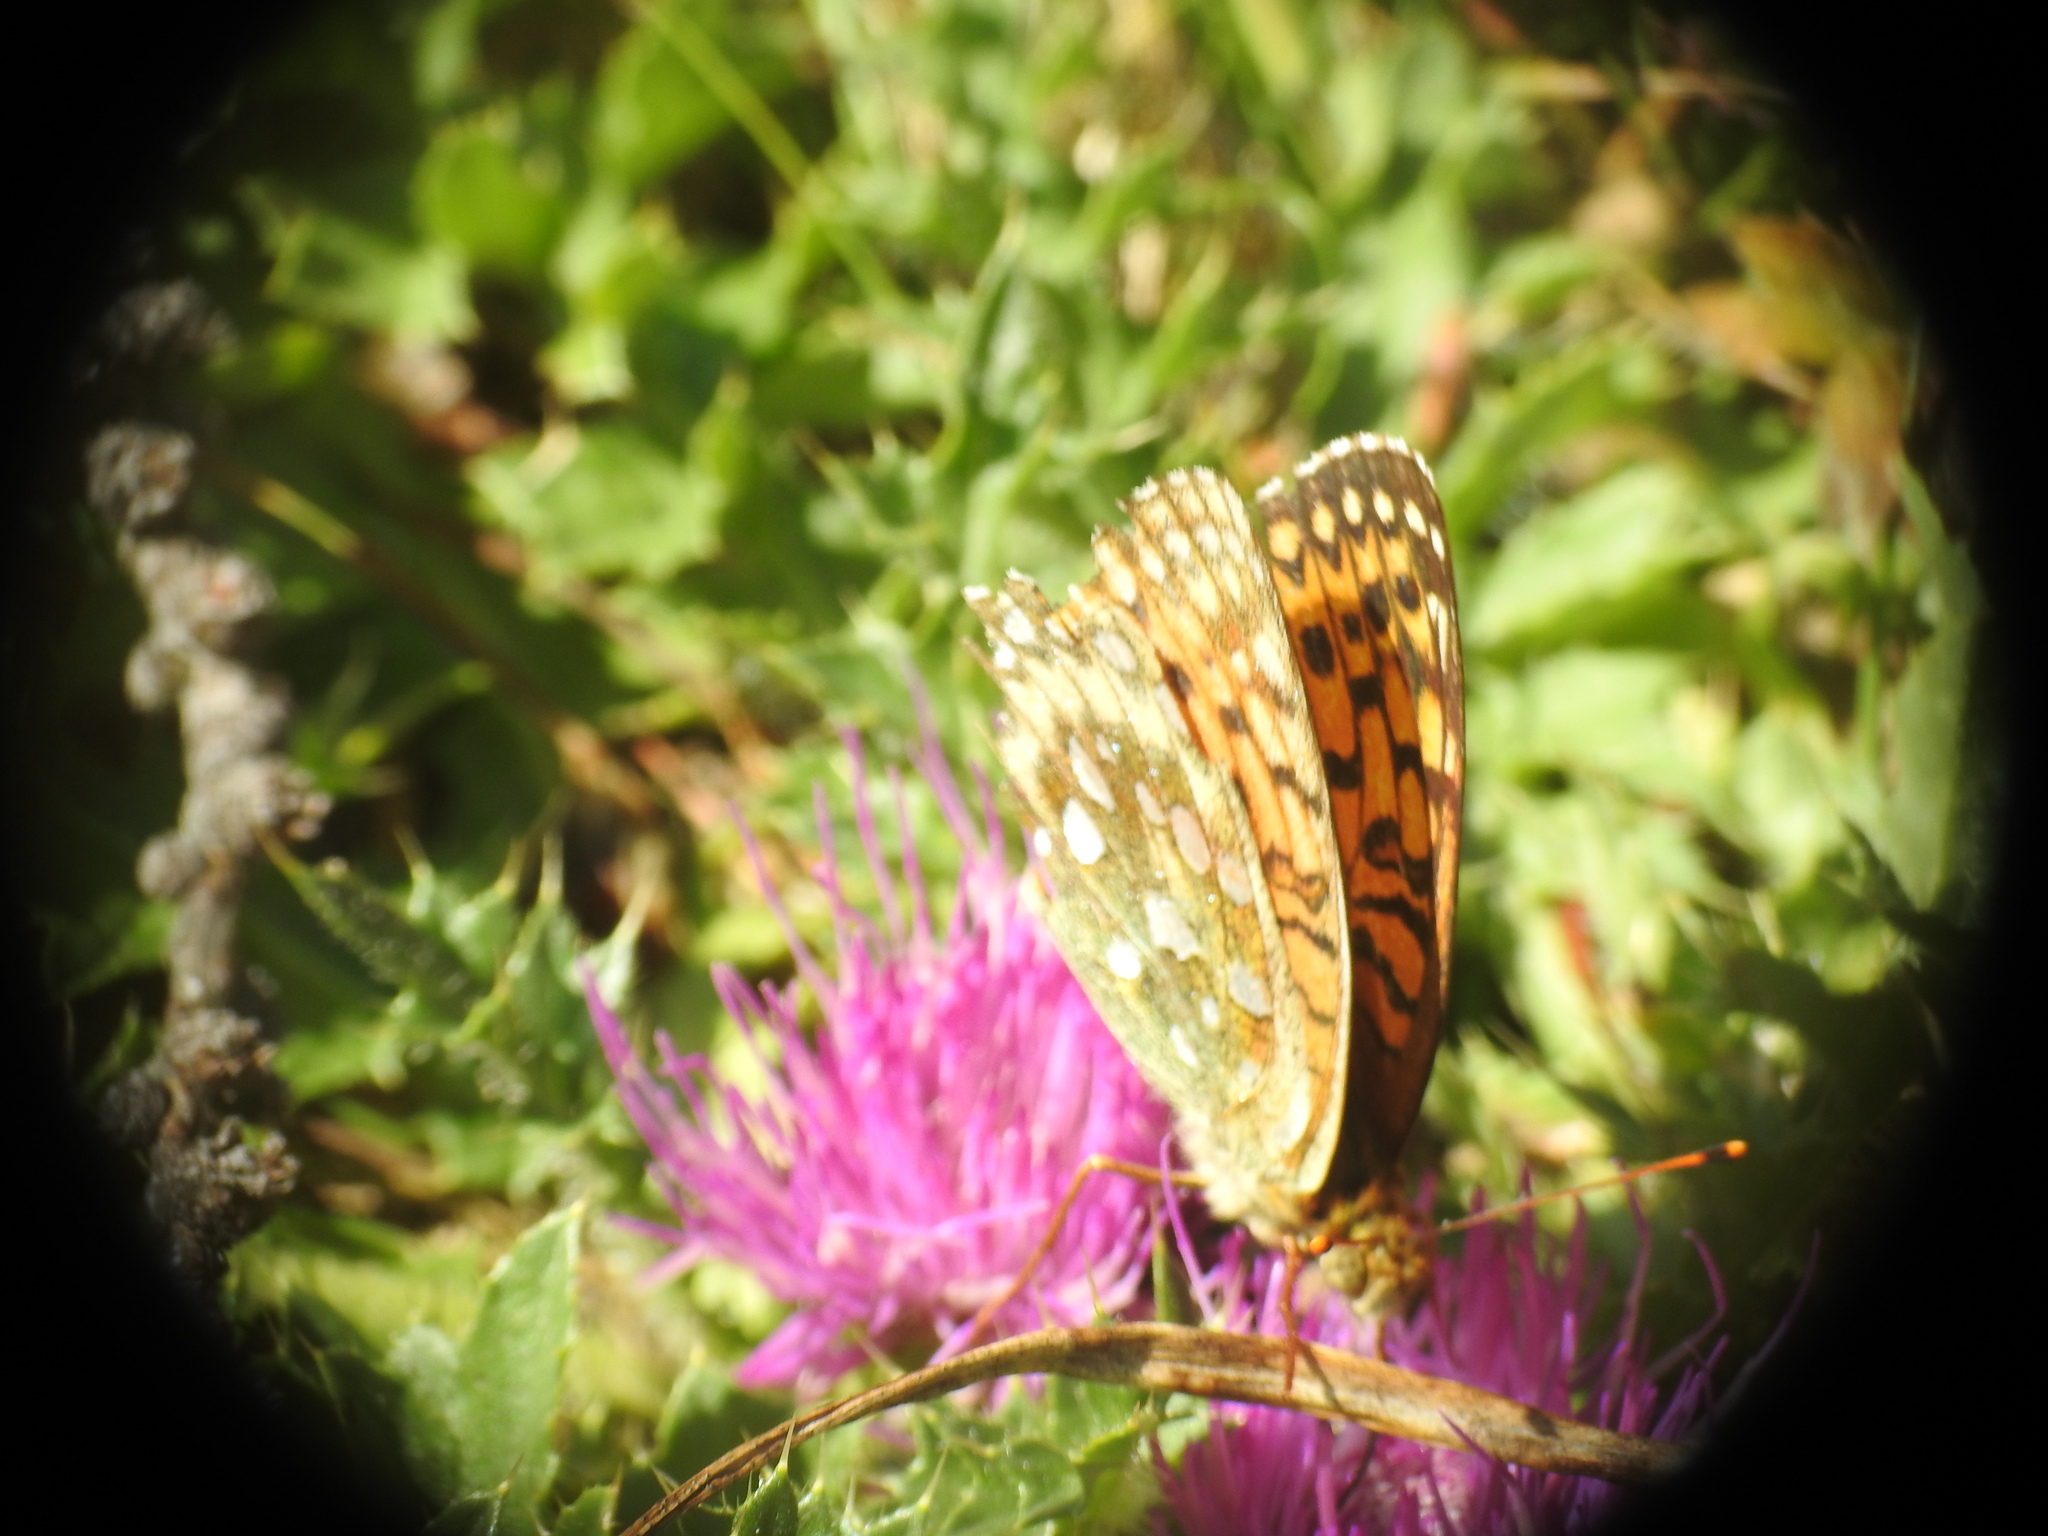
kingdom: Animalia
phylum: Arthropoda
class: Insecta
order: Lepidoptera
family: Nymphalidae
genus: Speyeria
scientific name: Speyeria aglaja
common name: Dark green fritillary
